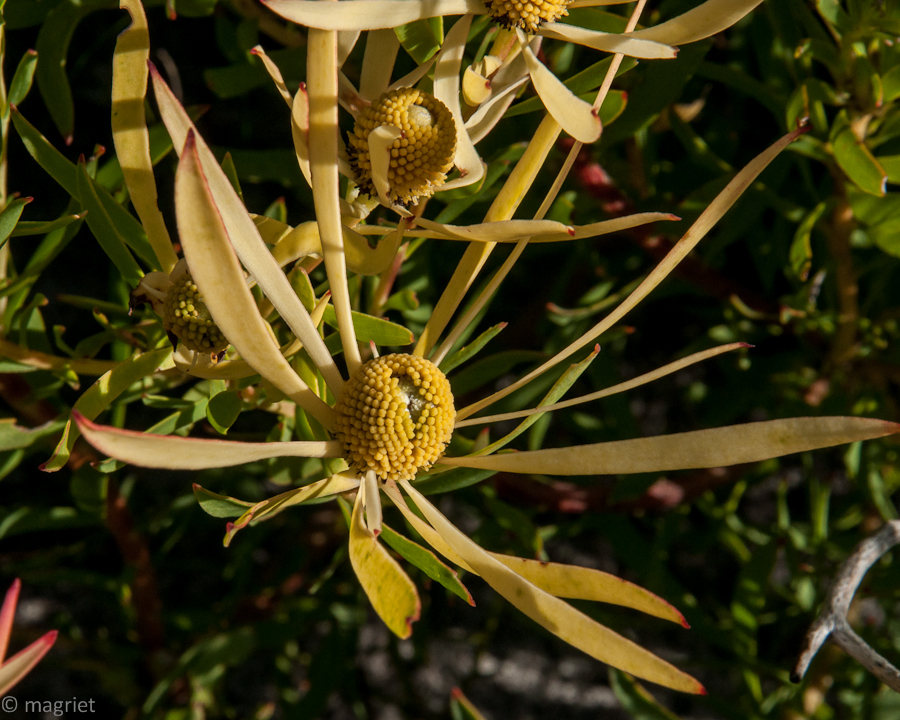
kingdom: Plantae
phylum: Tracheophyta
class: Magnoliopsida
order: Proteales
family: Proteaceae
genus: Leucadendron
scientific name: Leucadendron salignum
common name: Common sunshine conebush
